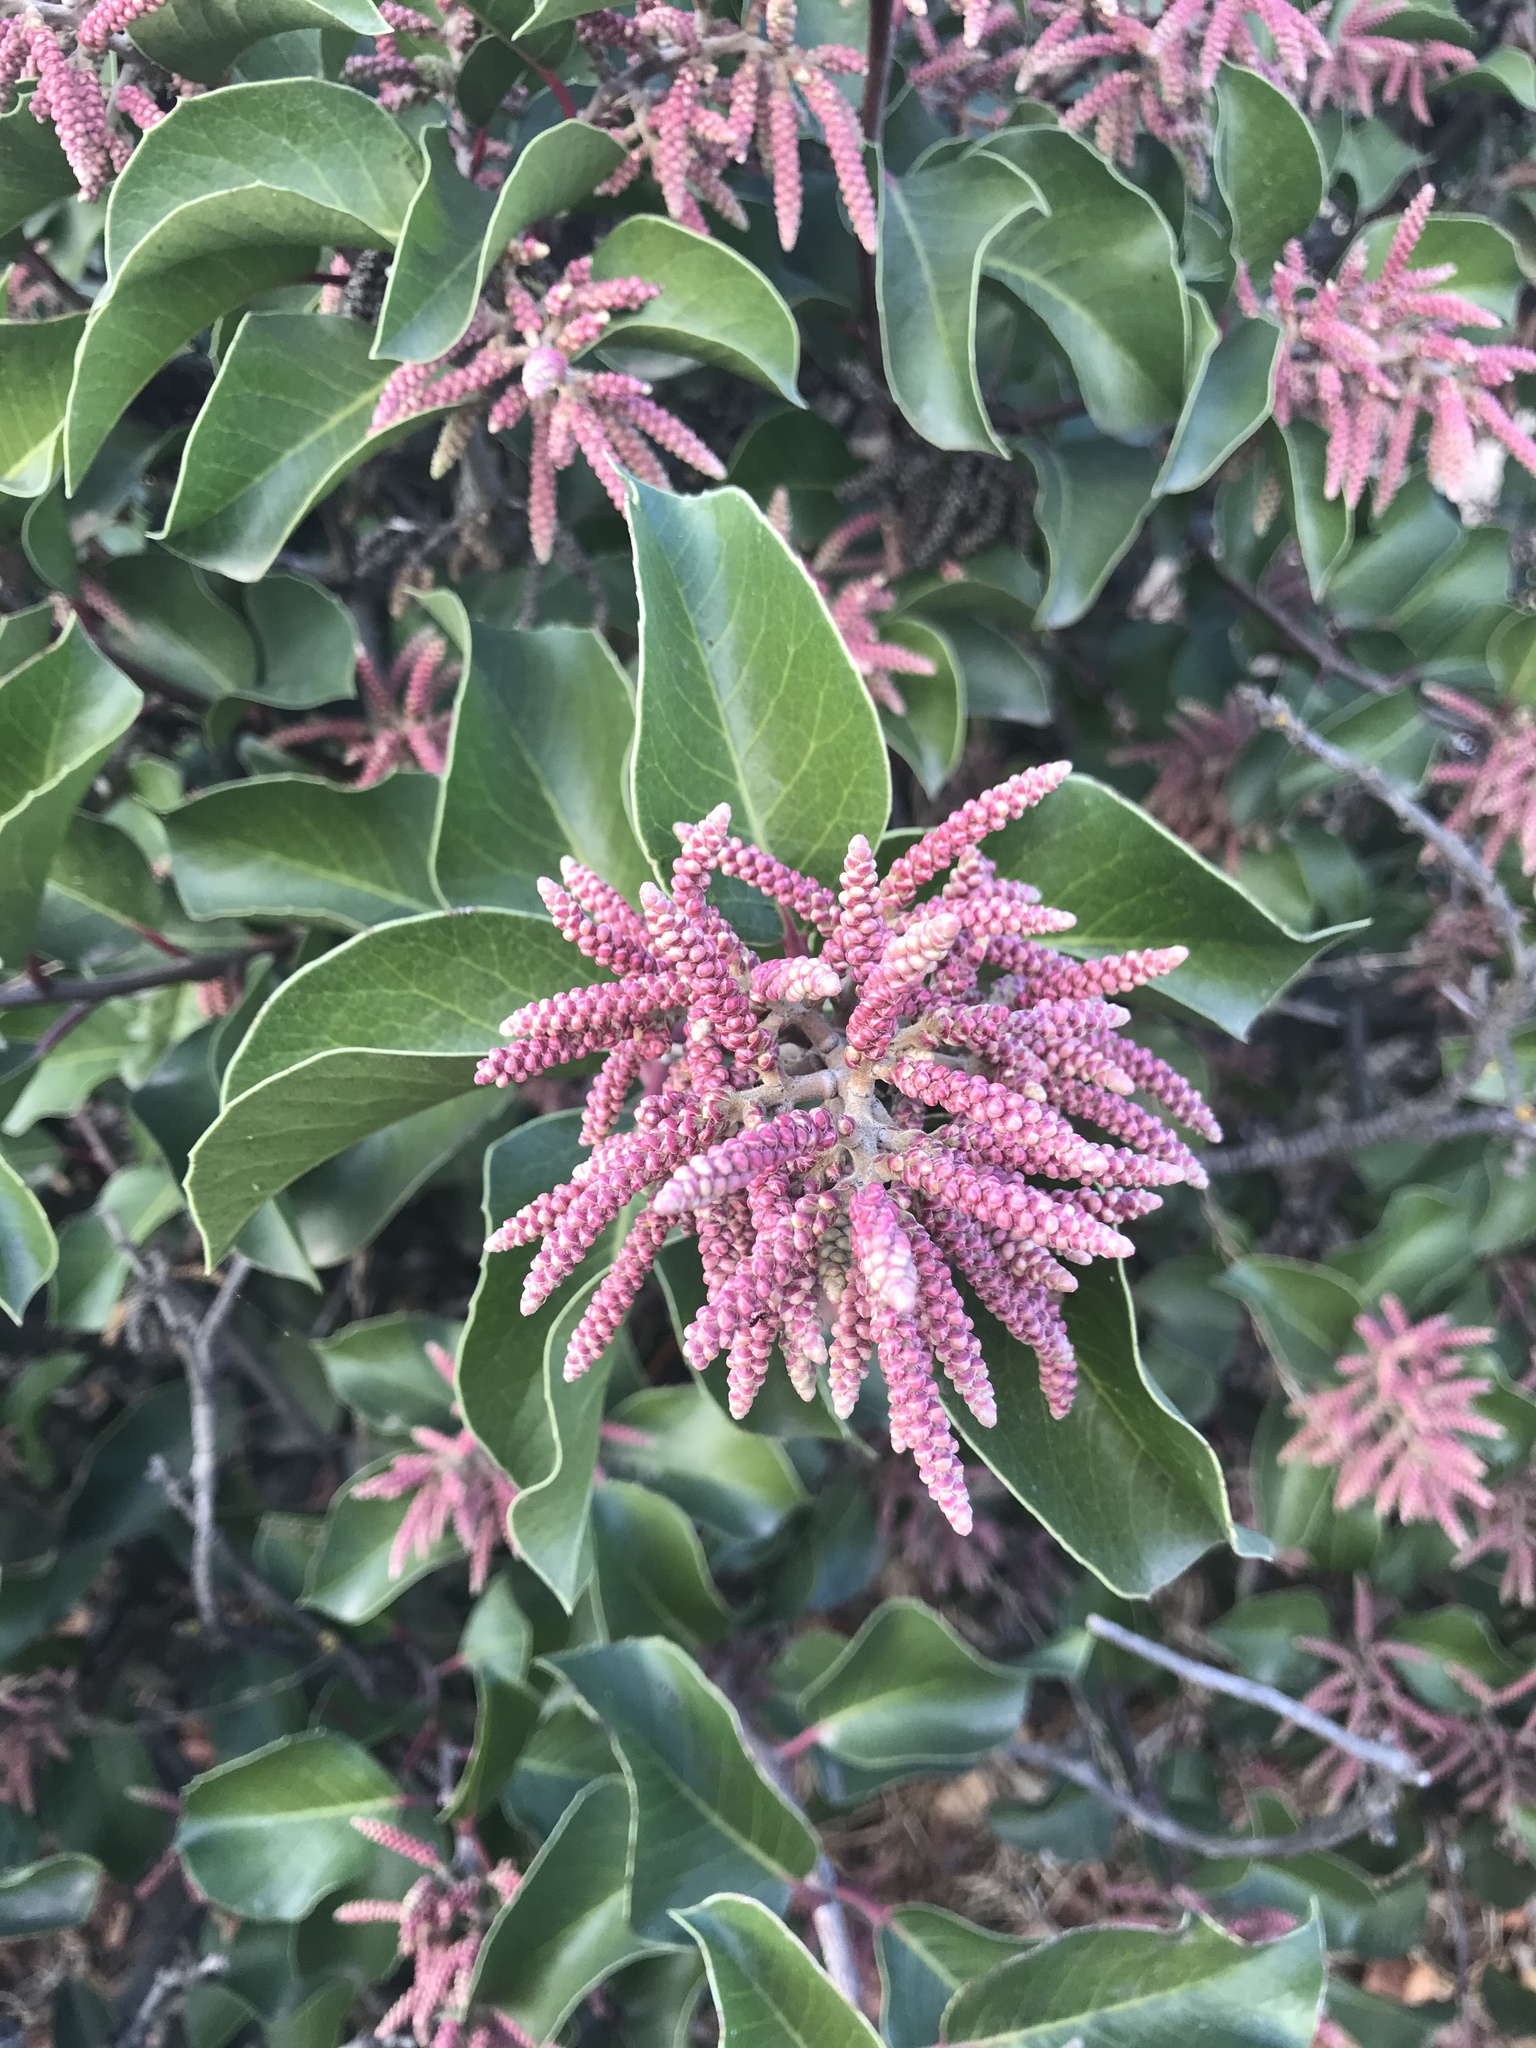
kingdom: Plantae
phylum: Tracheophyta
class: Magnoliopsida
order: Sapindales
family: Anacardiaceae
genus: Rhus
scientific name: Rhus ovata
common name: Sugar sumac
